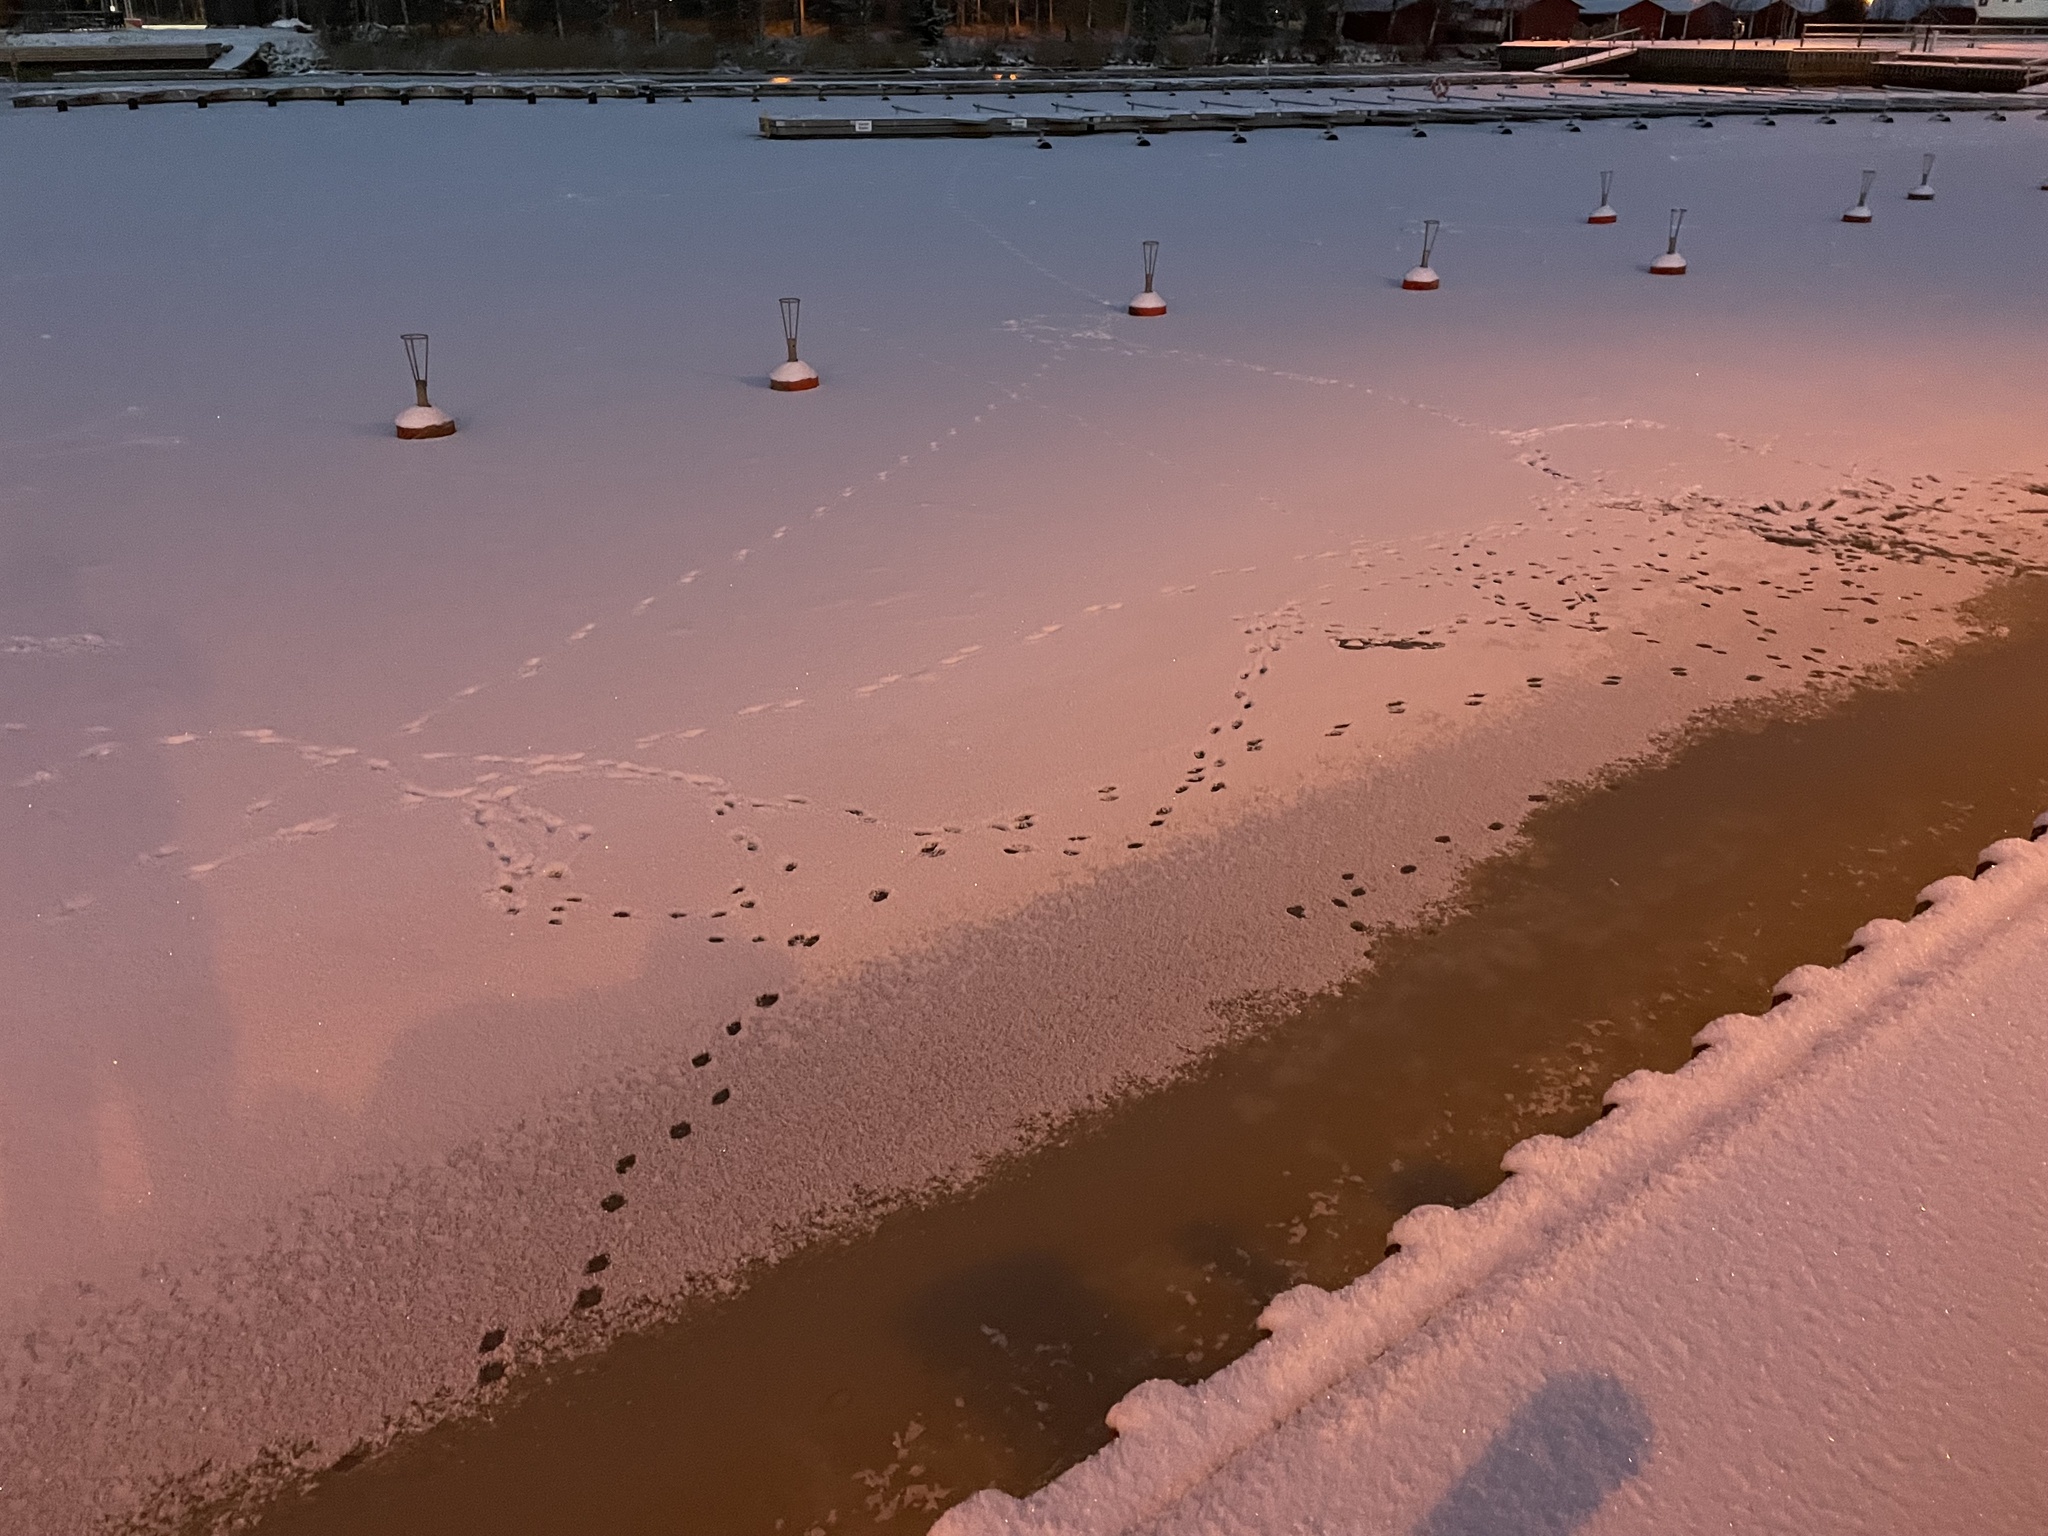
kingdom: Animalia
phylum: Chordata
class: Mammalia
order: Carnivora
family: Mustelidae
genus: Lutra
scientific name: Lutra lutra
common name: European otter
